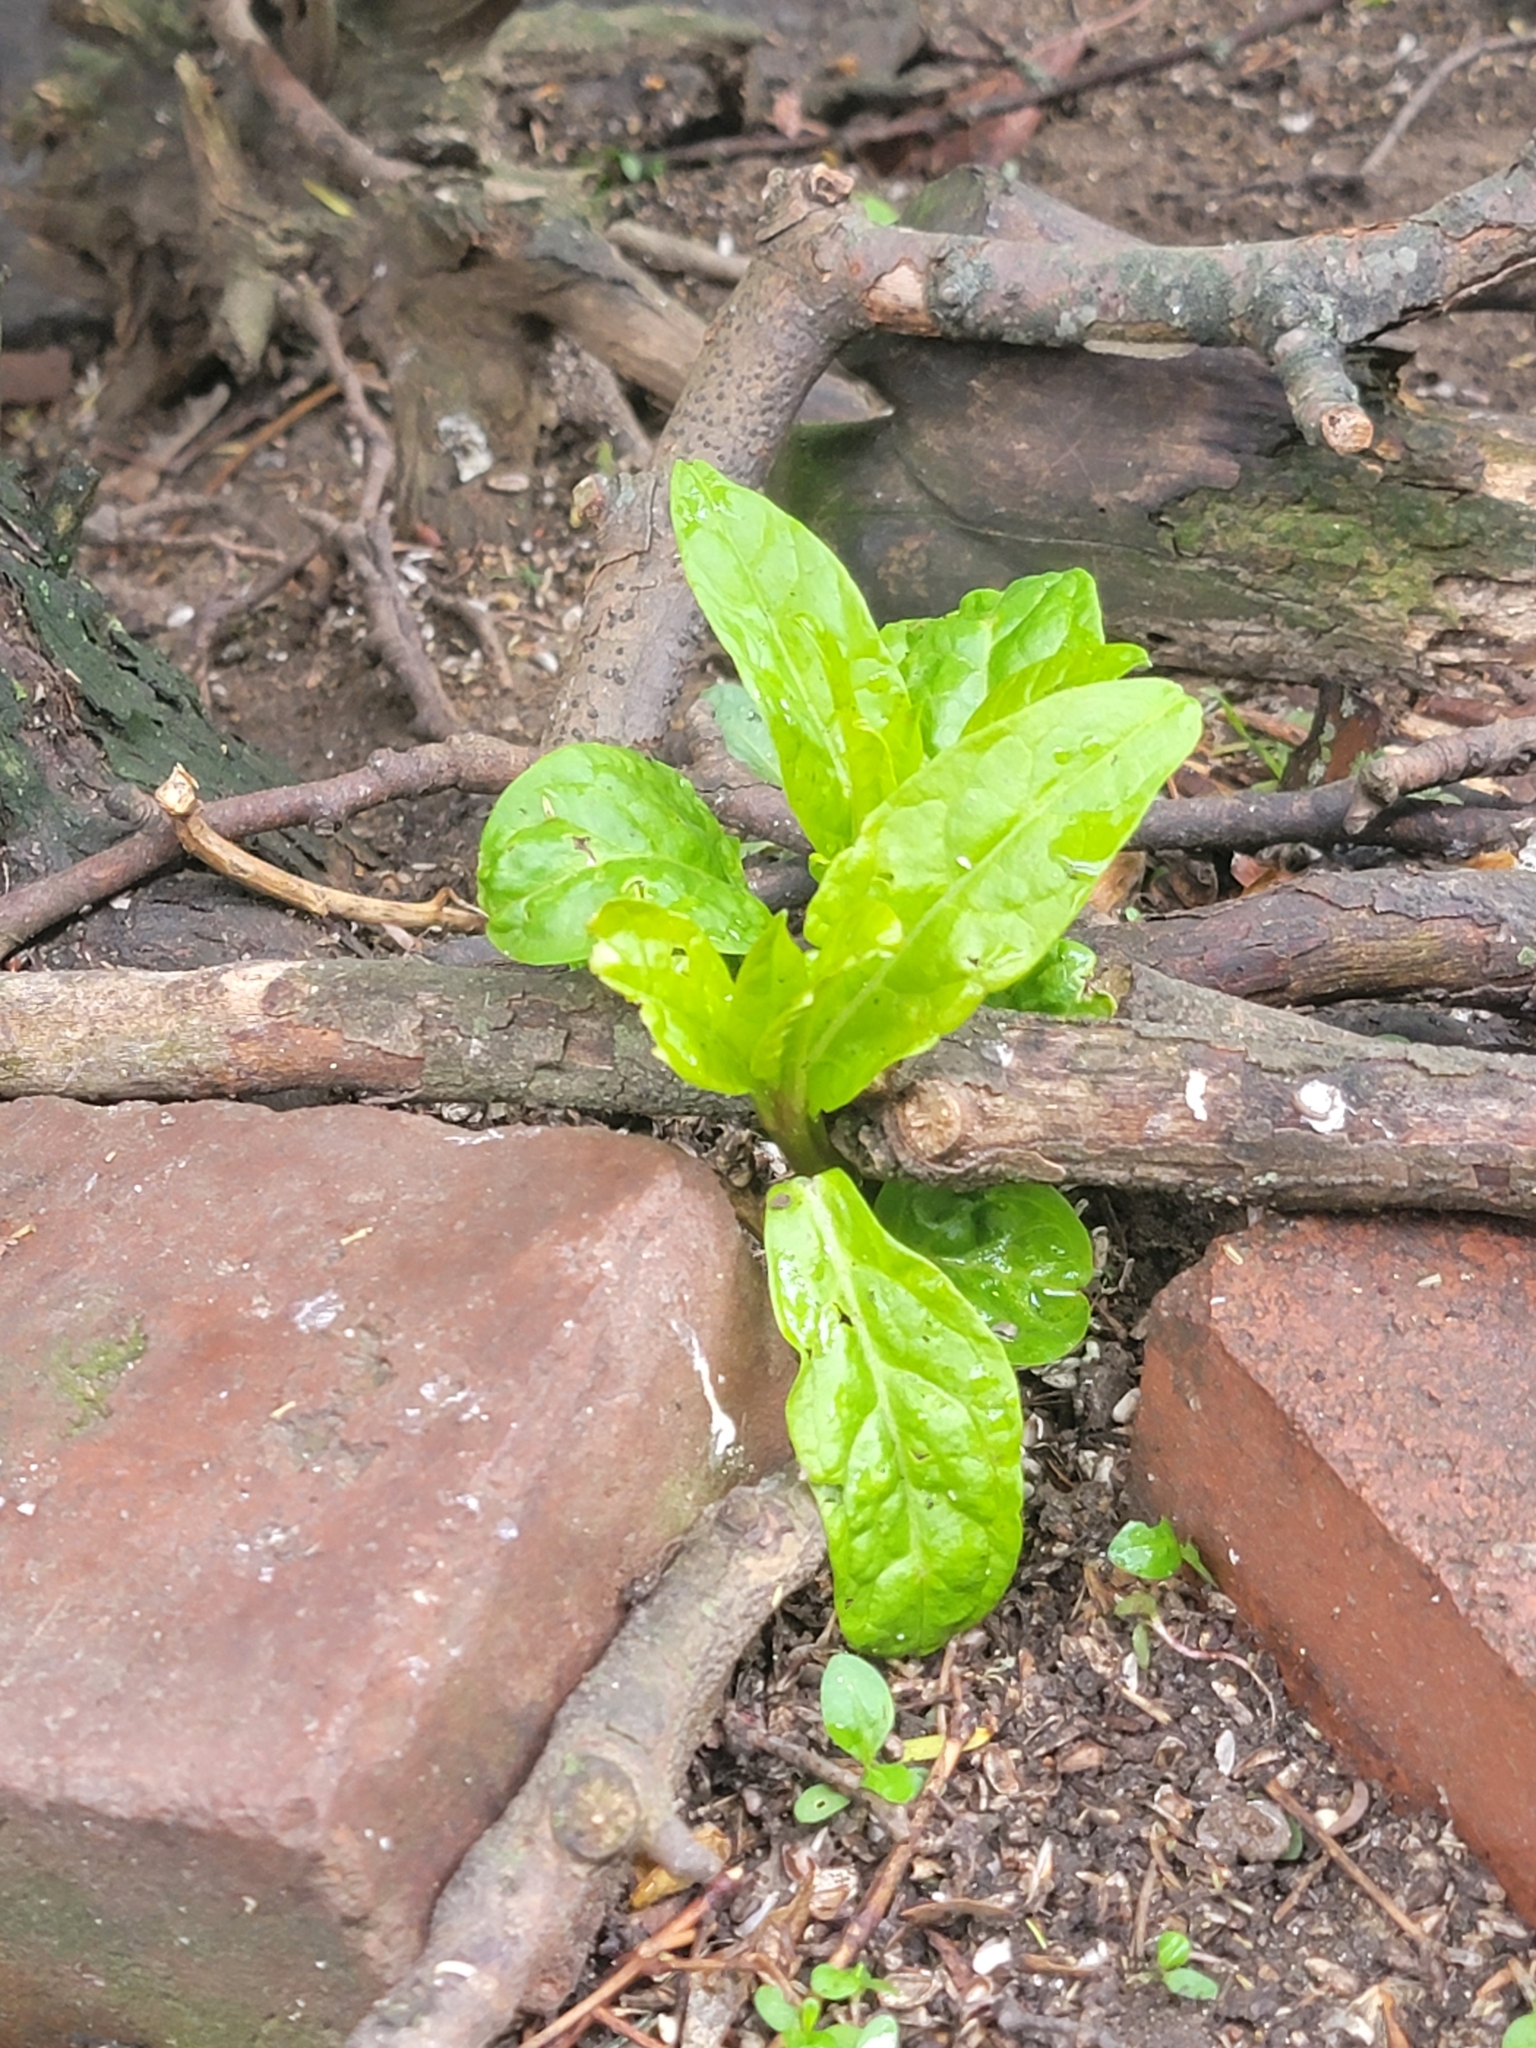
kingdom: Plantae
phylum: Tracheophyta
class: Magnoliopsida
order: Caryophyllales
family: Phytolaccaceae
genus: Phytolacca
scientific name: Phytolacca americana
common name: American pokeweed
